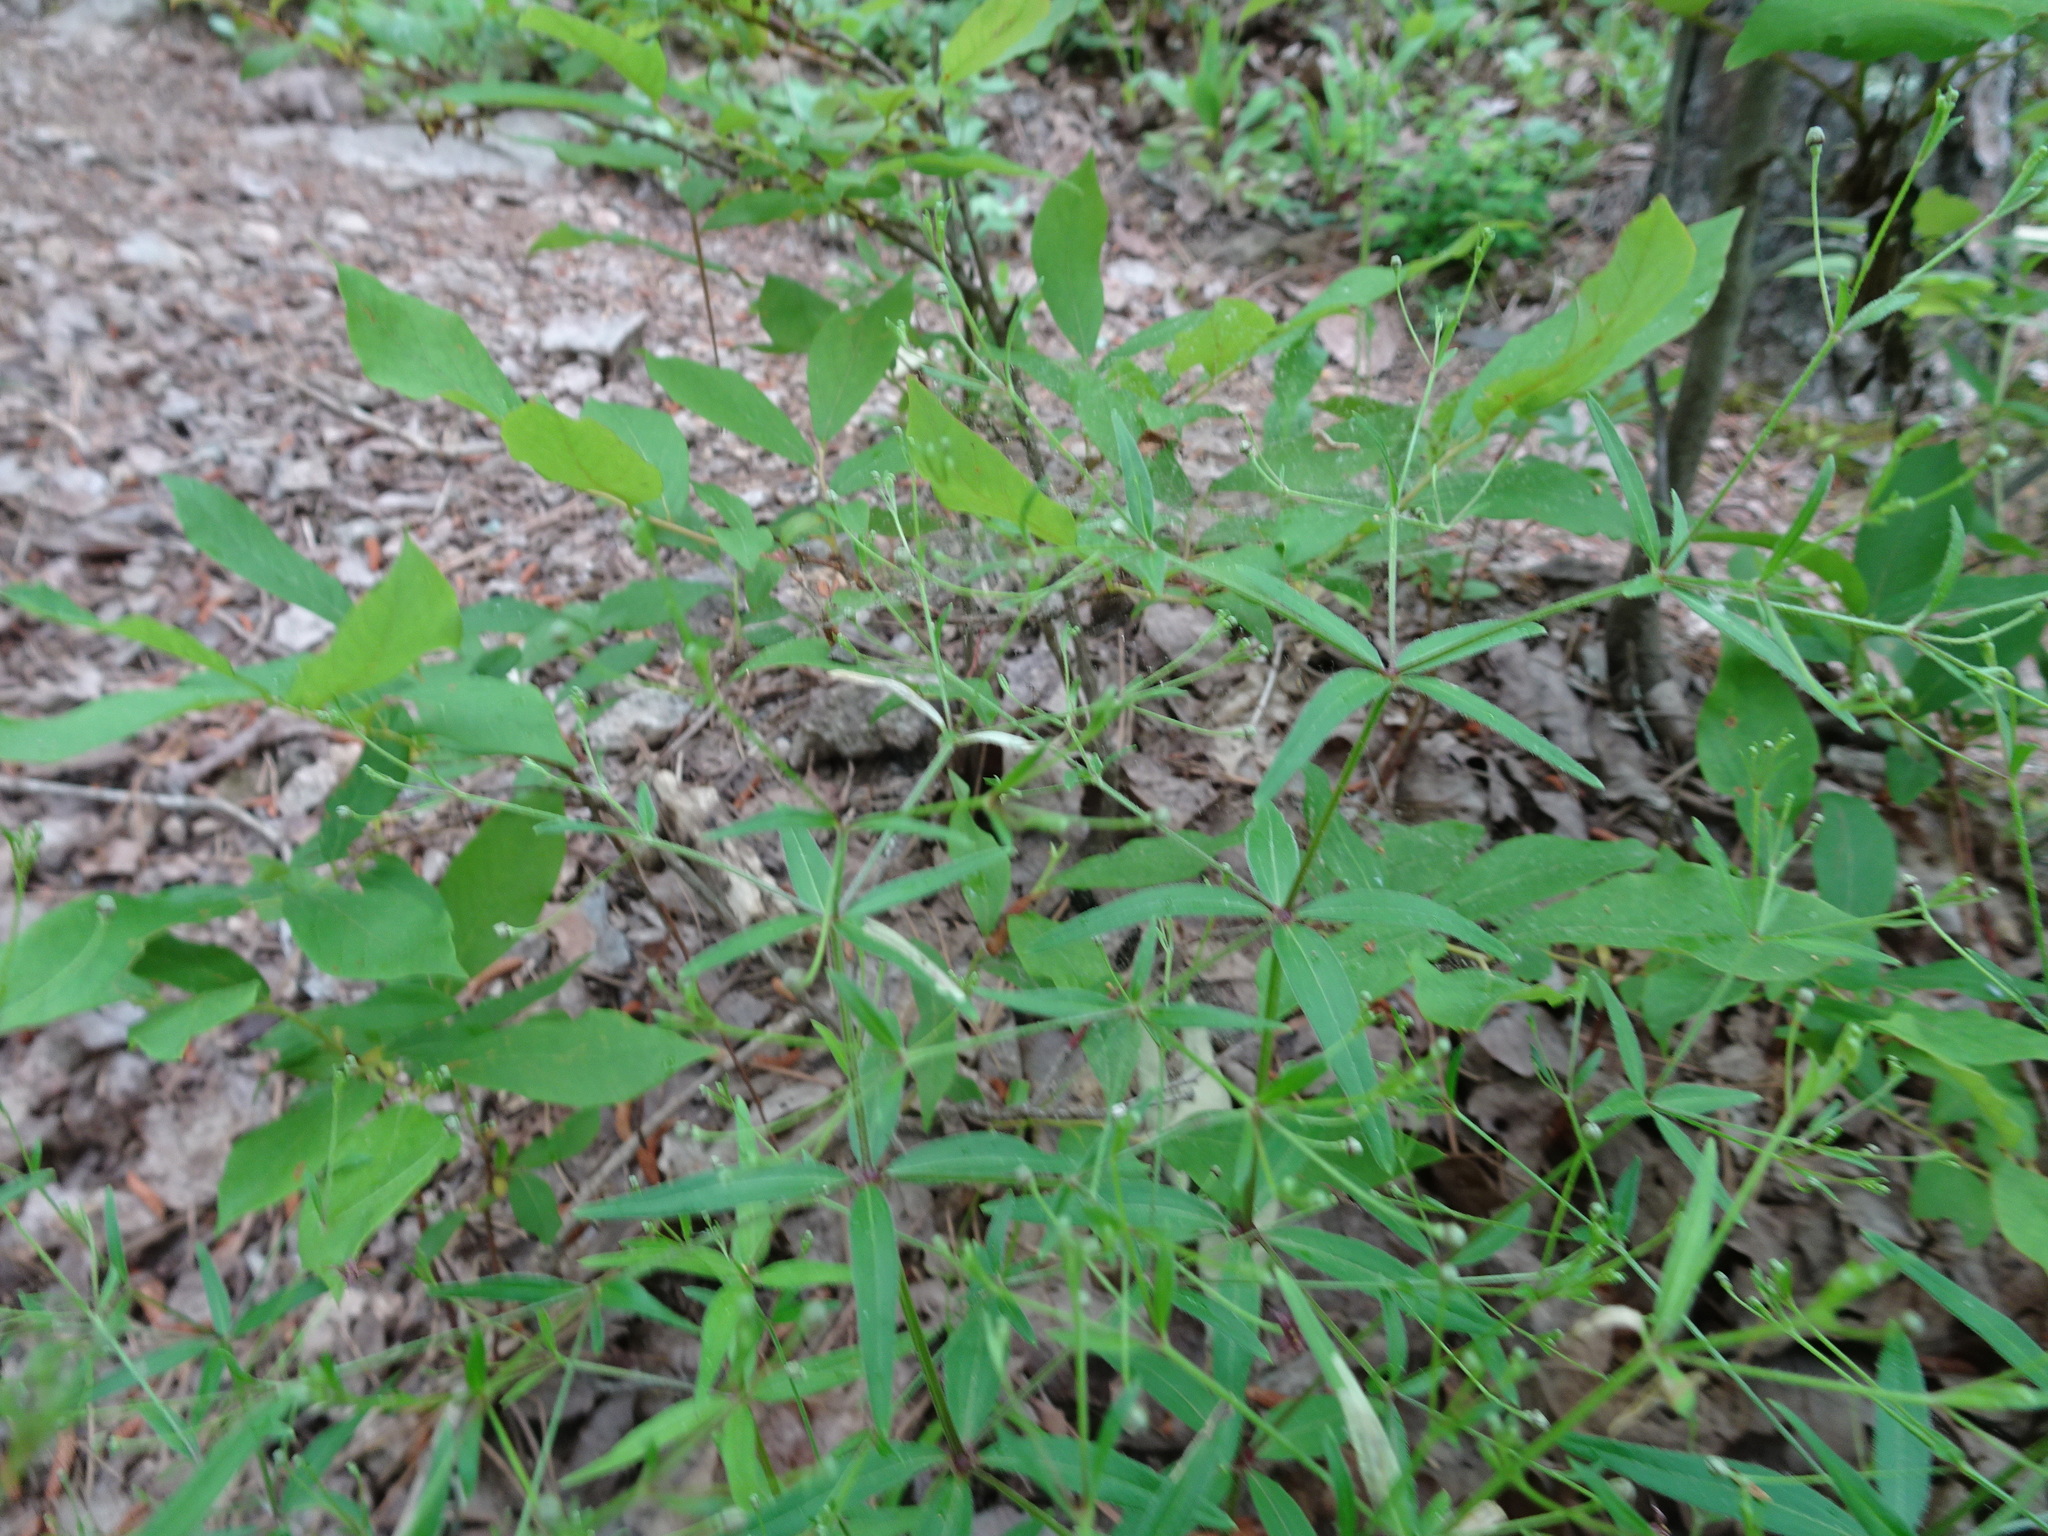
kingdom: Plantae
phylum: Tracheophyta
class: Magnoliopsida
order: Gentianales
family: Rubiaceae
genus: Galium
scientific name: Galium arkansanum
